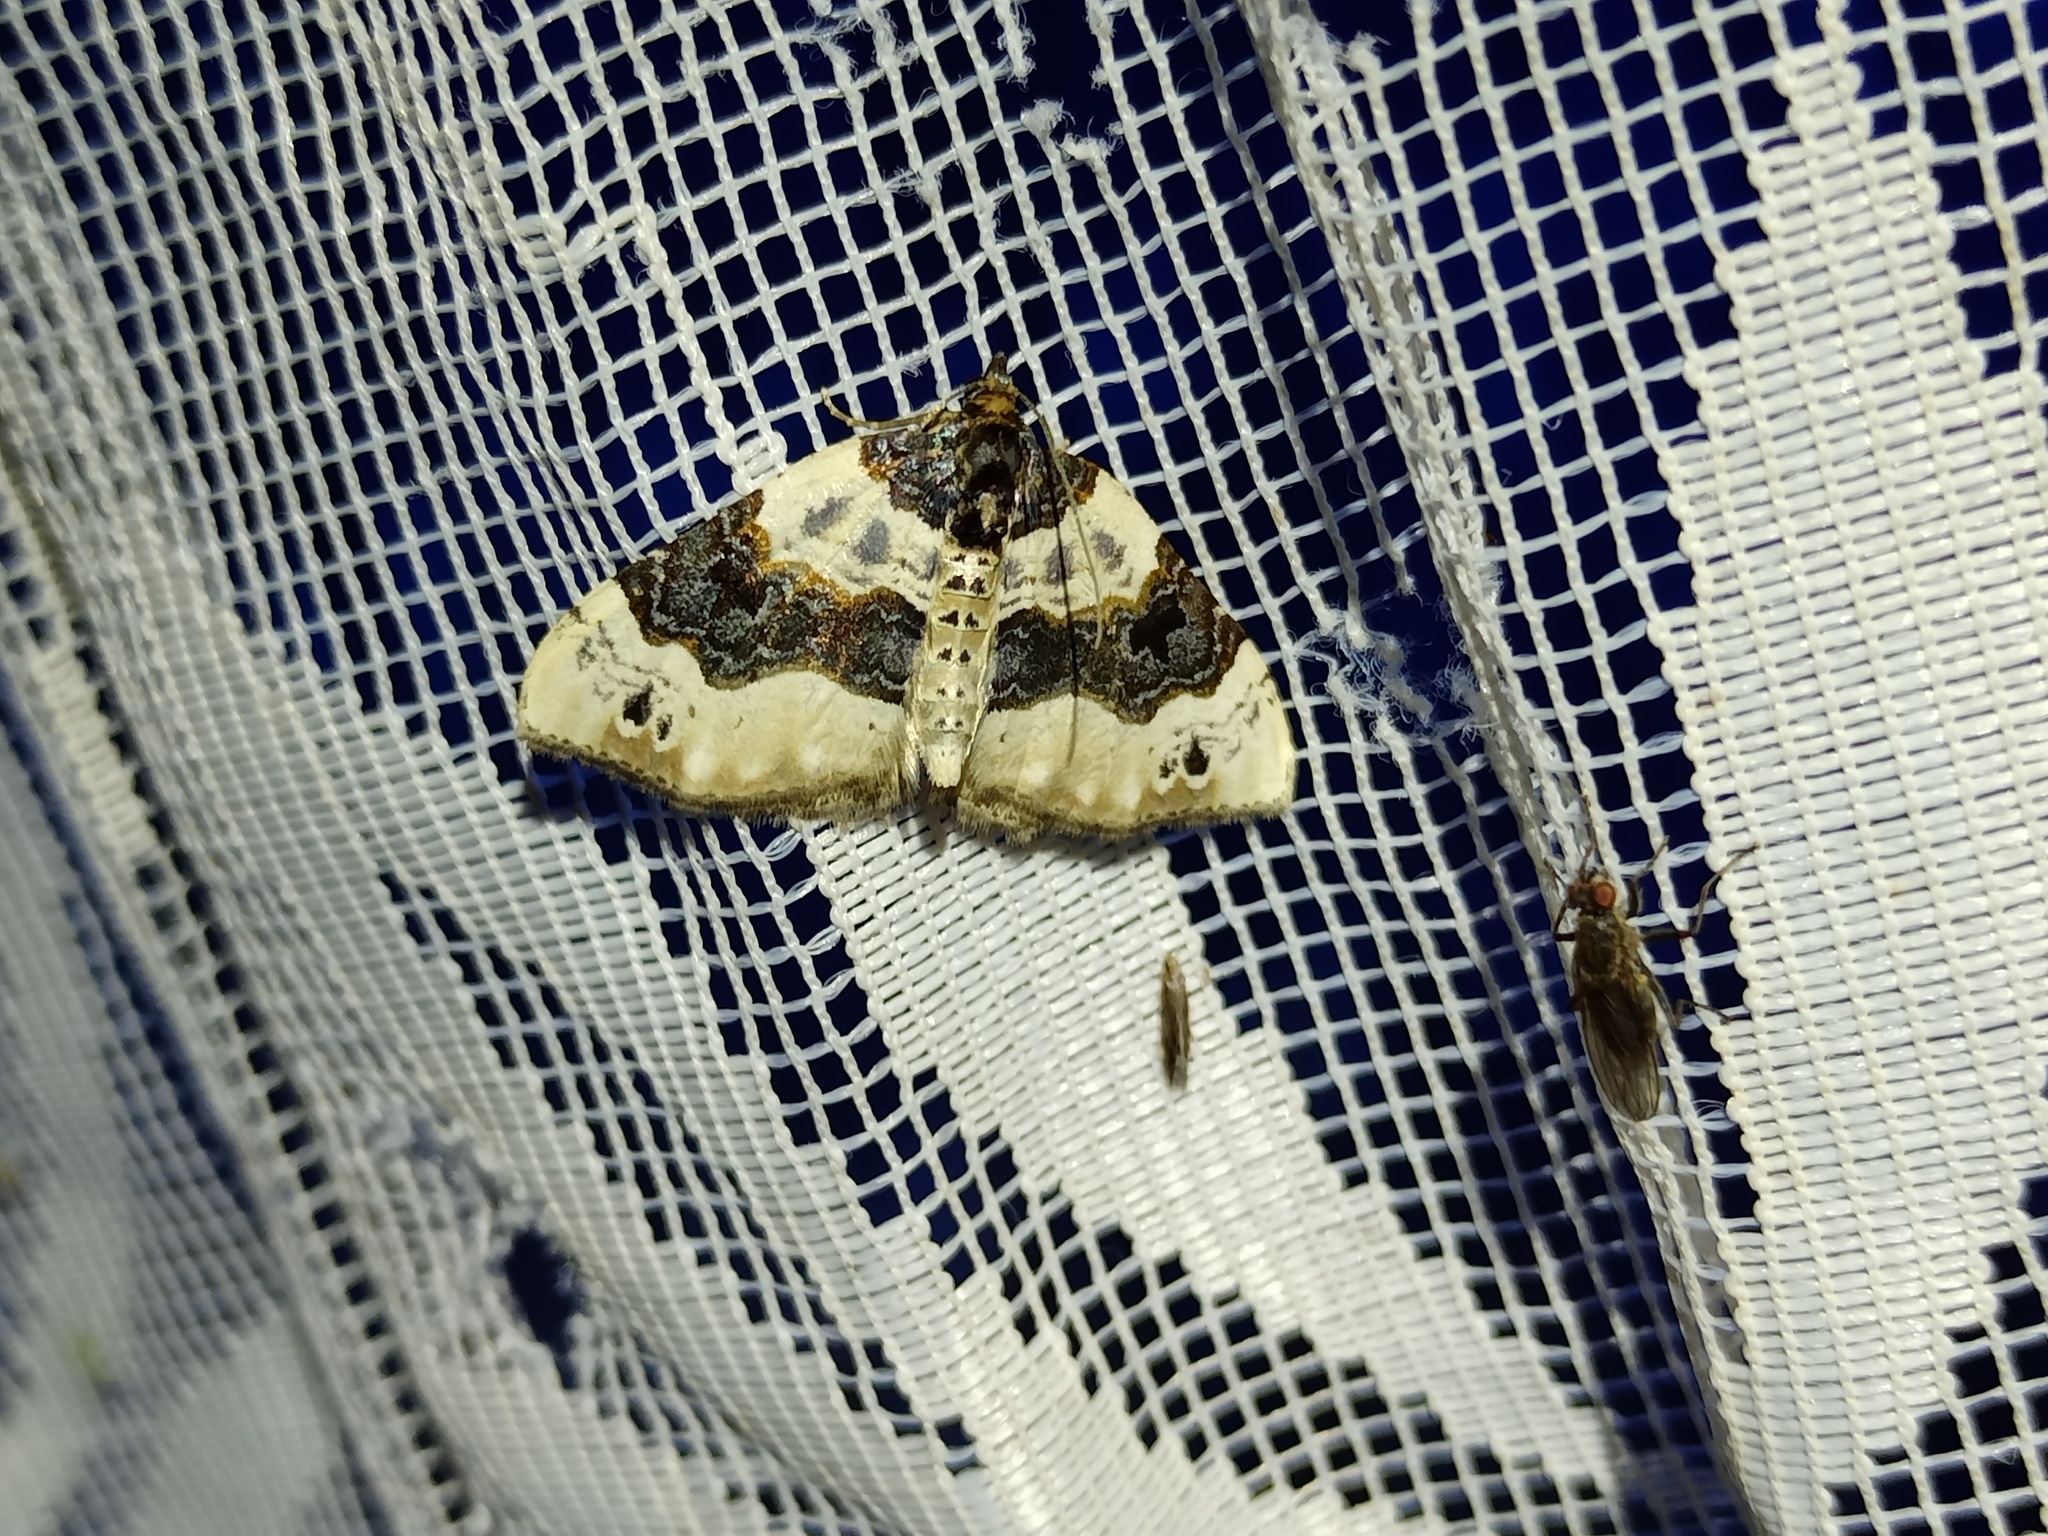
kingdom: Animalia
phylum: Arthropoda
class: Insecta
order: Lepidoptera
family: Geometridae
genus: Cosmorhoe
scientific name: Cosmorhoe ocellata
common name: Purple bar
